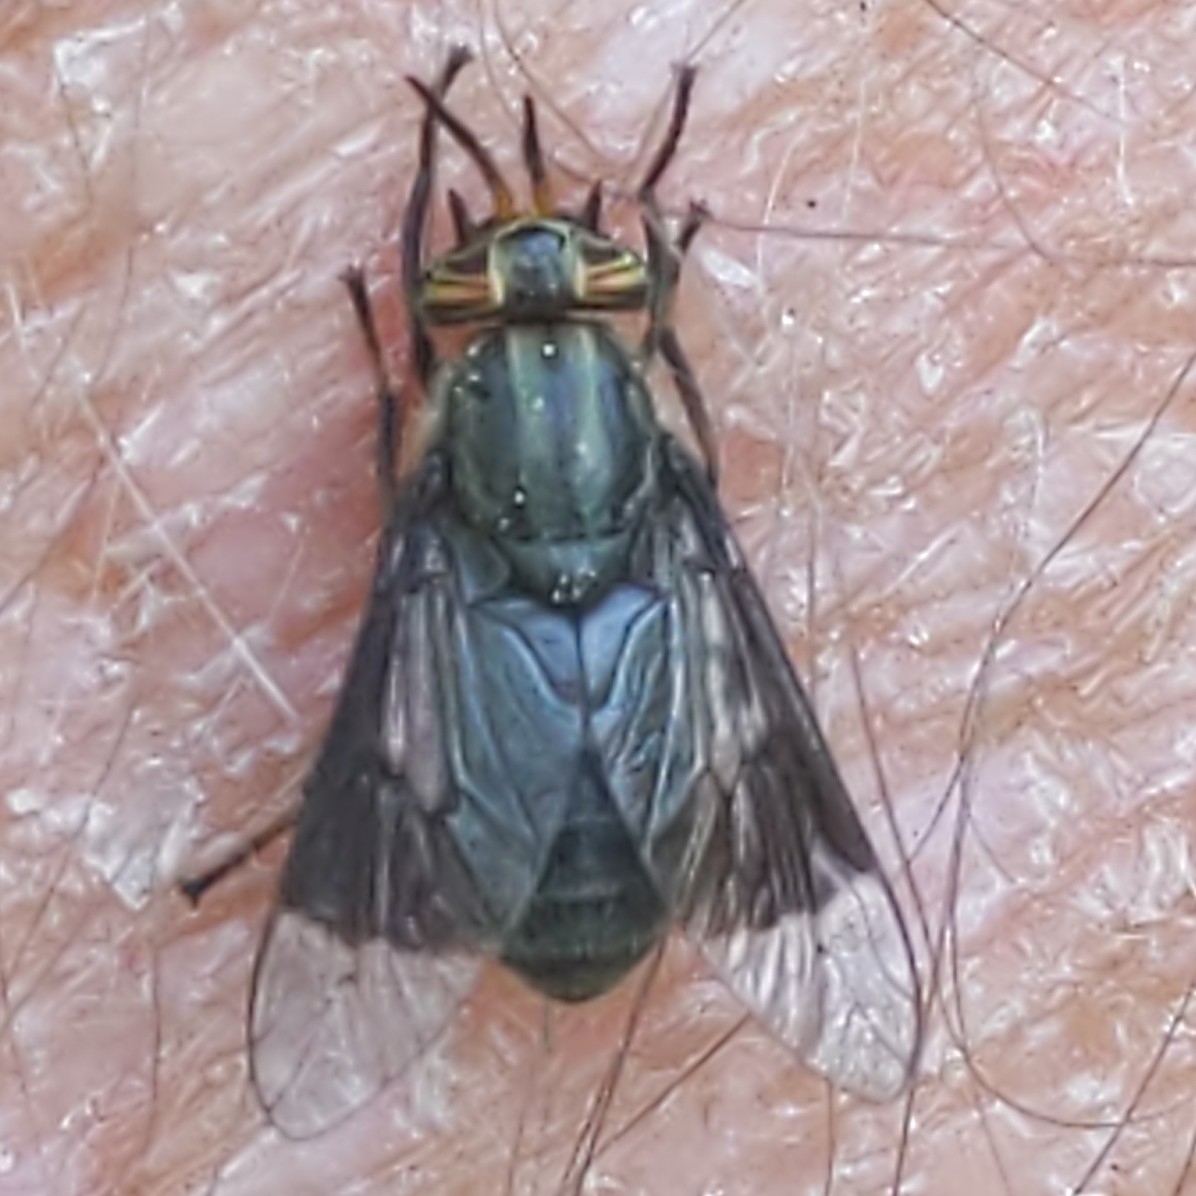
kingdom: Animalia
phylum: Arthropoda
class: Insecta
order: Diptera
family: Tabanidae
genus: Chrysops
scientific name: Chrysops niger
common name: Black deer fly
